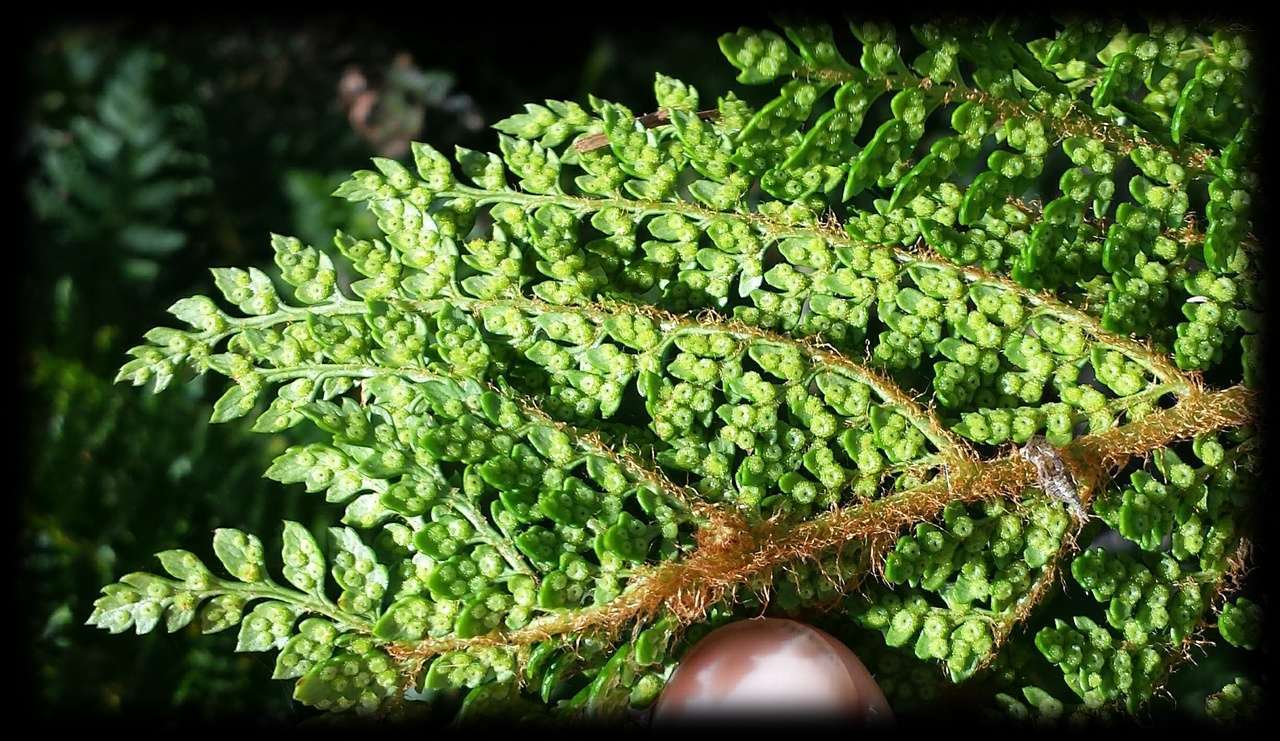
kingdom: Plantae
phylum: Tracheophyta
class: Polypodiopsida
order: Polypodiales
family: Dryopteridaceae
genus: Polystichum
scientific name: Polystichum proliferum
